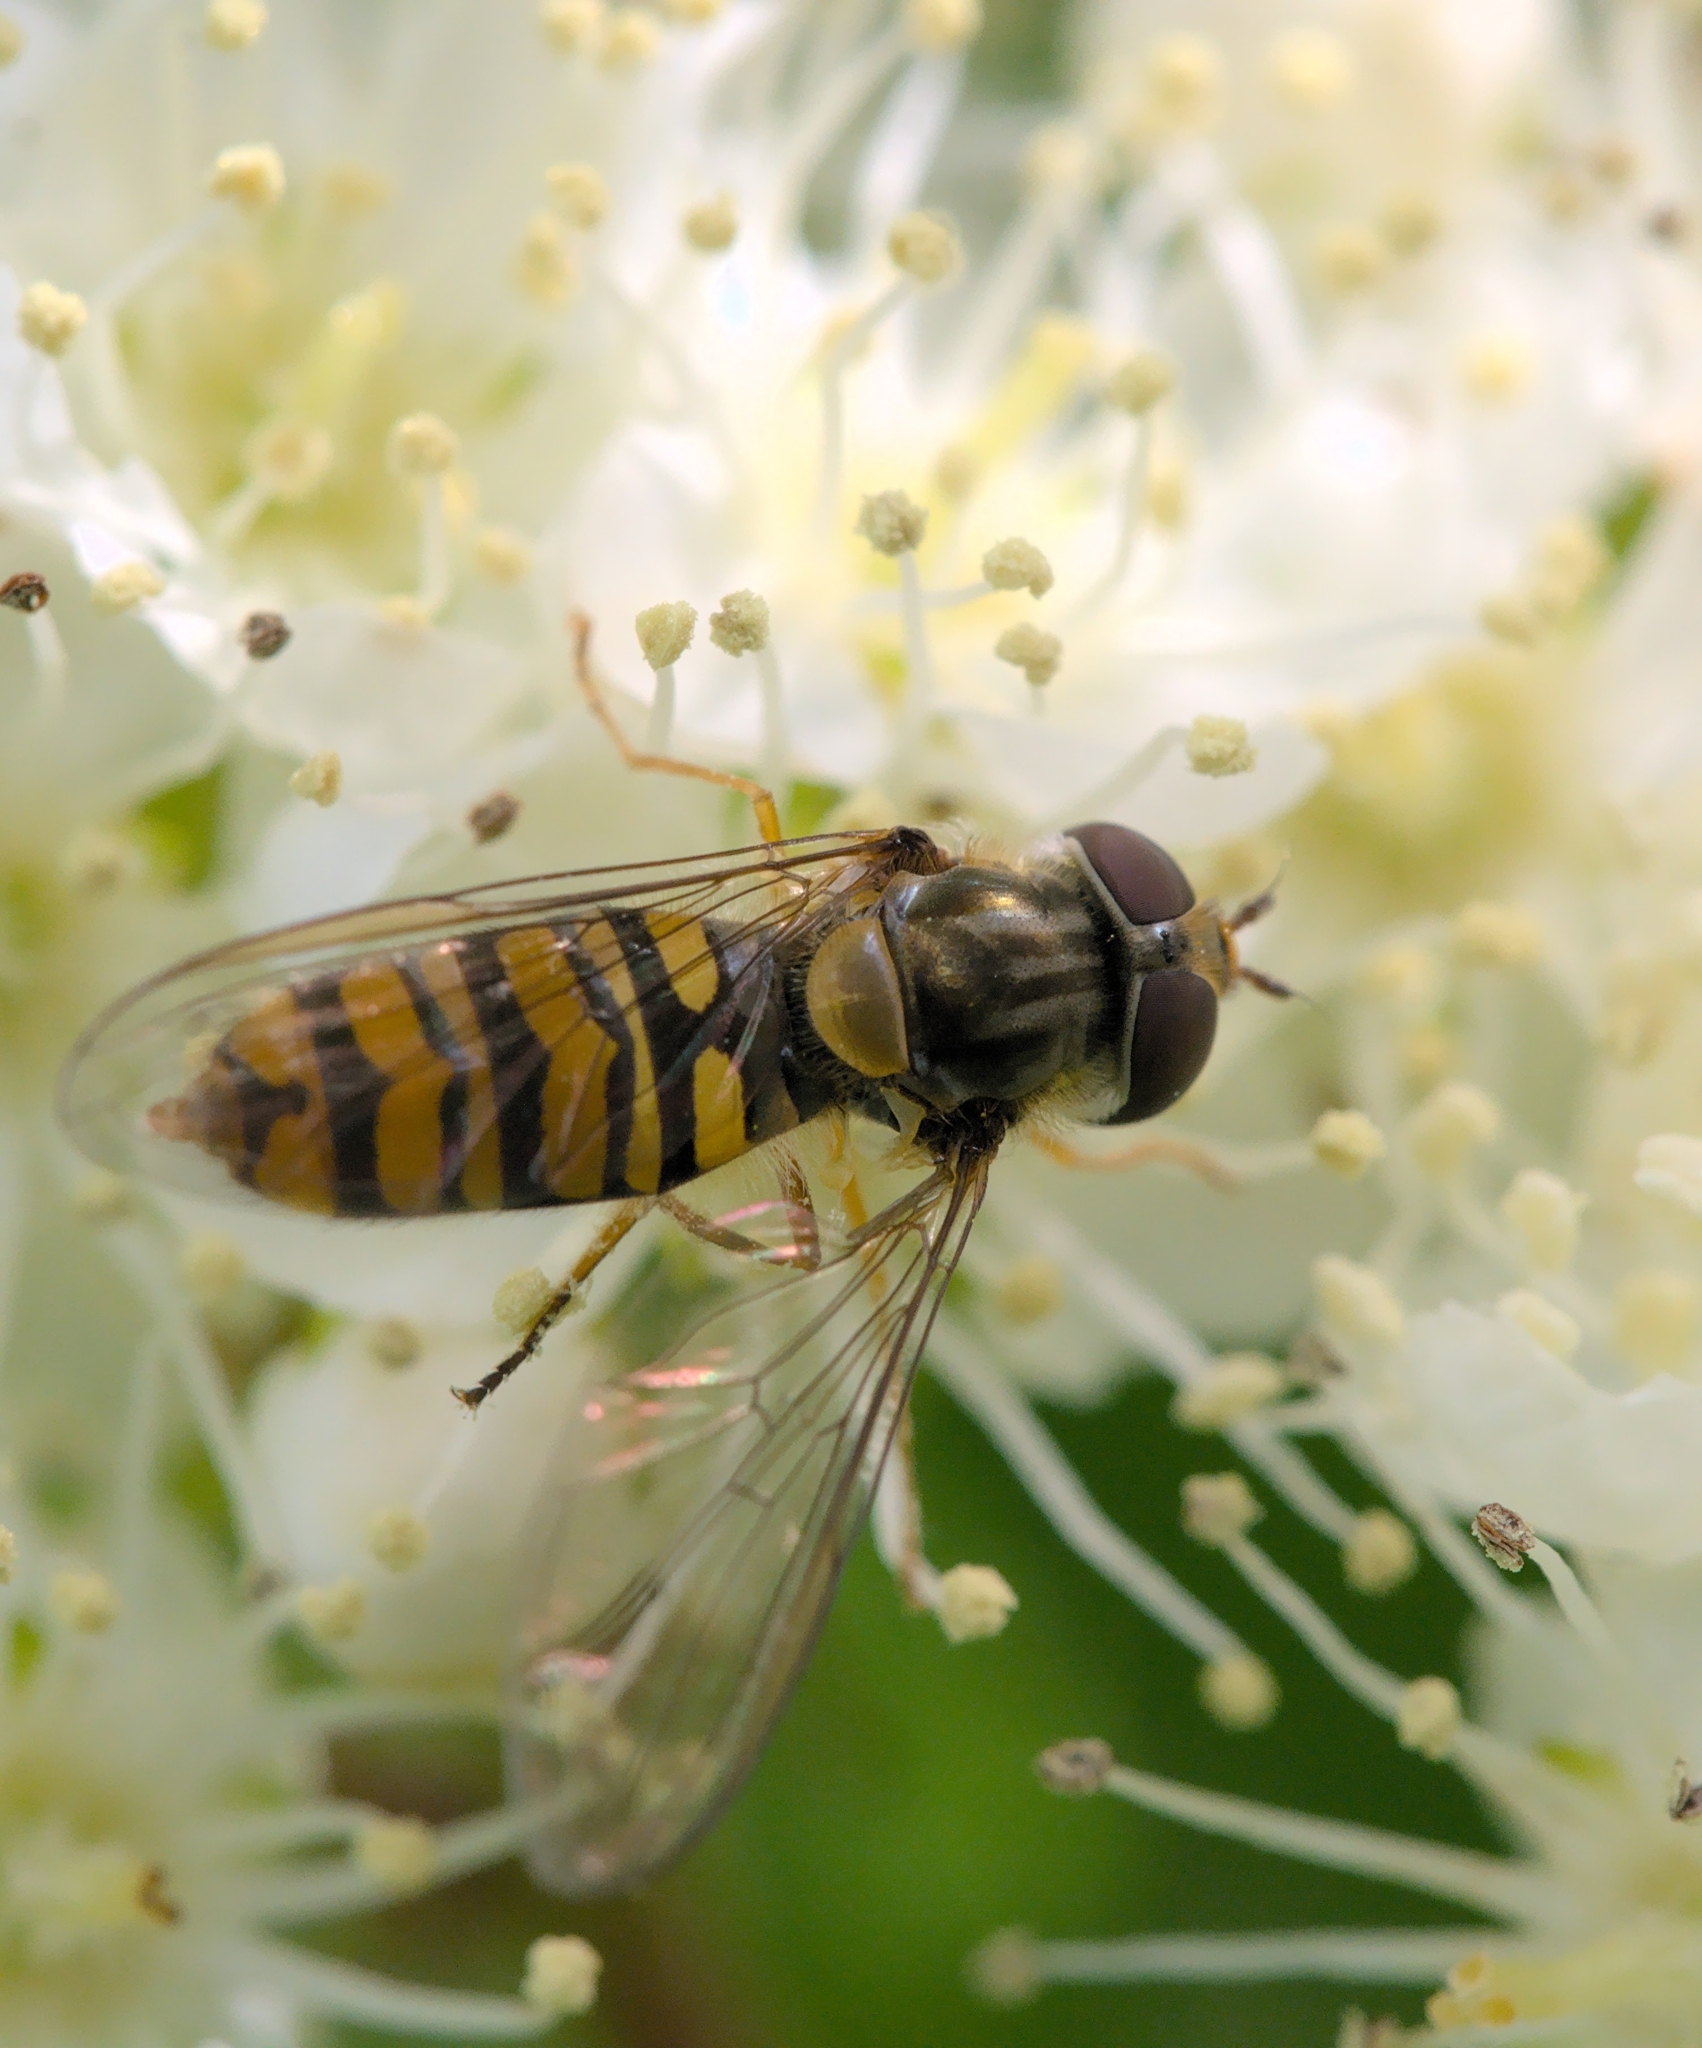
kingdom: Animalia
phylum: Arthropoda
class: Insecta
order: Diptera
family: Syrphidae
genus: Episyrphus
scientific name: Episyrphus balteatus
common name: Marmalade hoverfly
